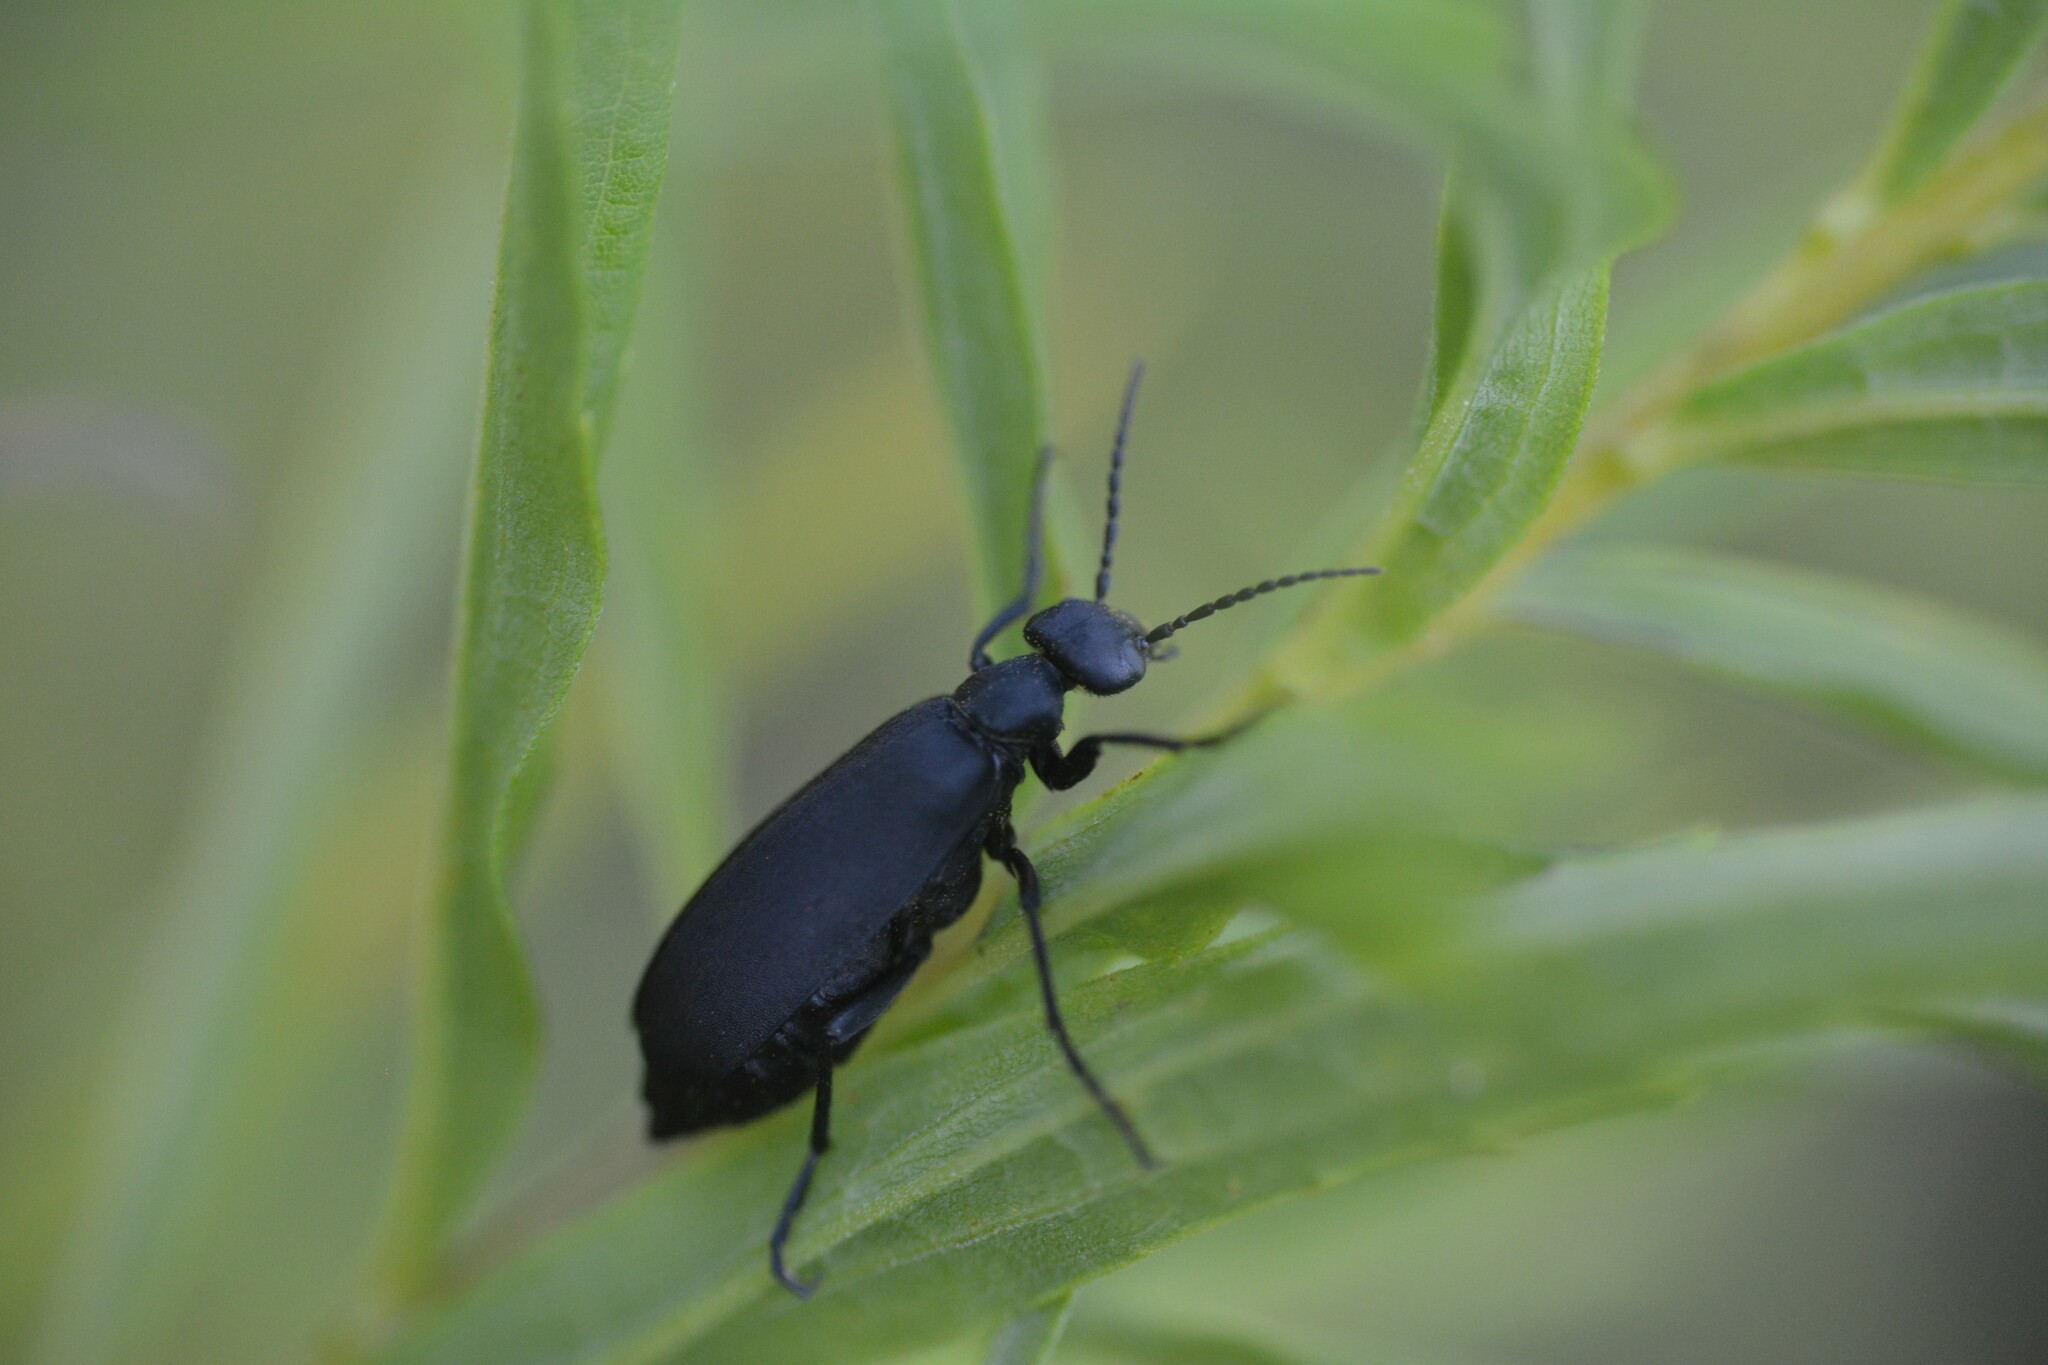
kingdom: Animalia
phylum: Arthropoda
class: Insecta
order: Coleoptera
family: Meloidae
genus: Epicauta
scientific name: Epicauta pensylvanica
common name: Black blister beetle
